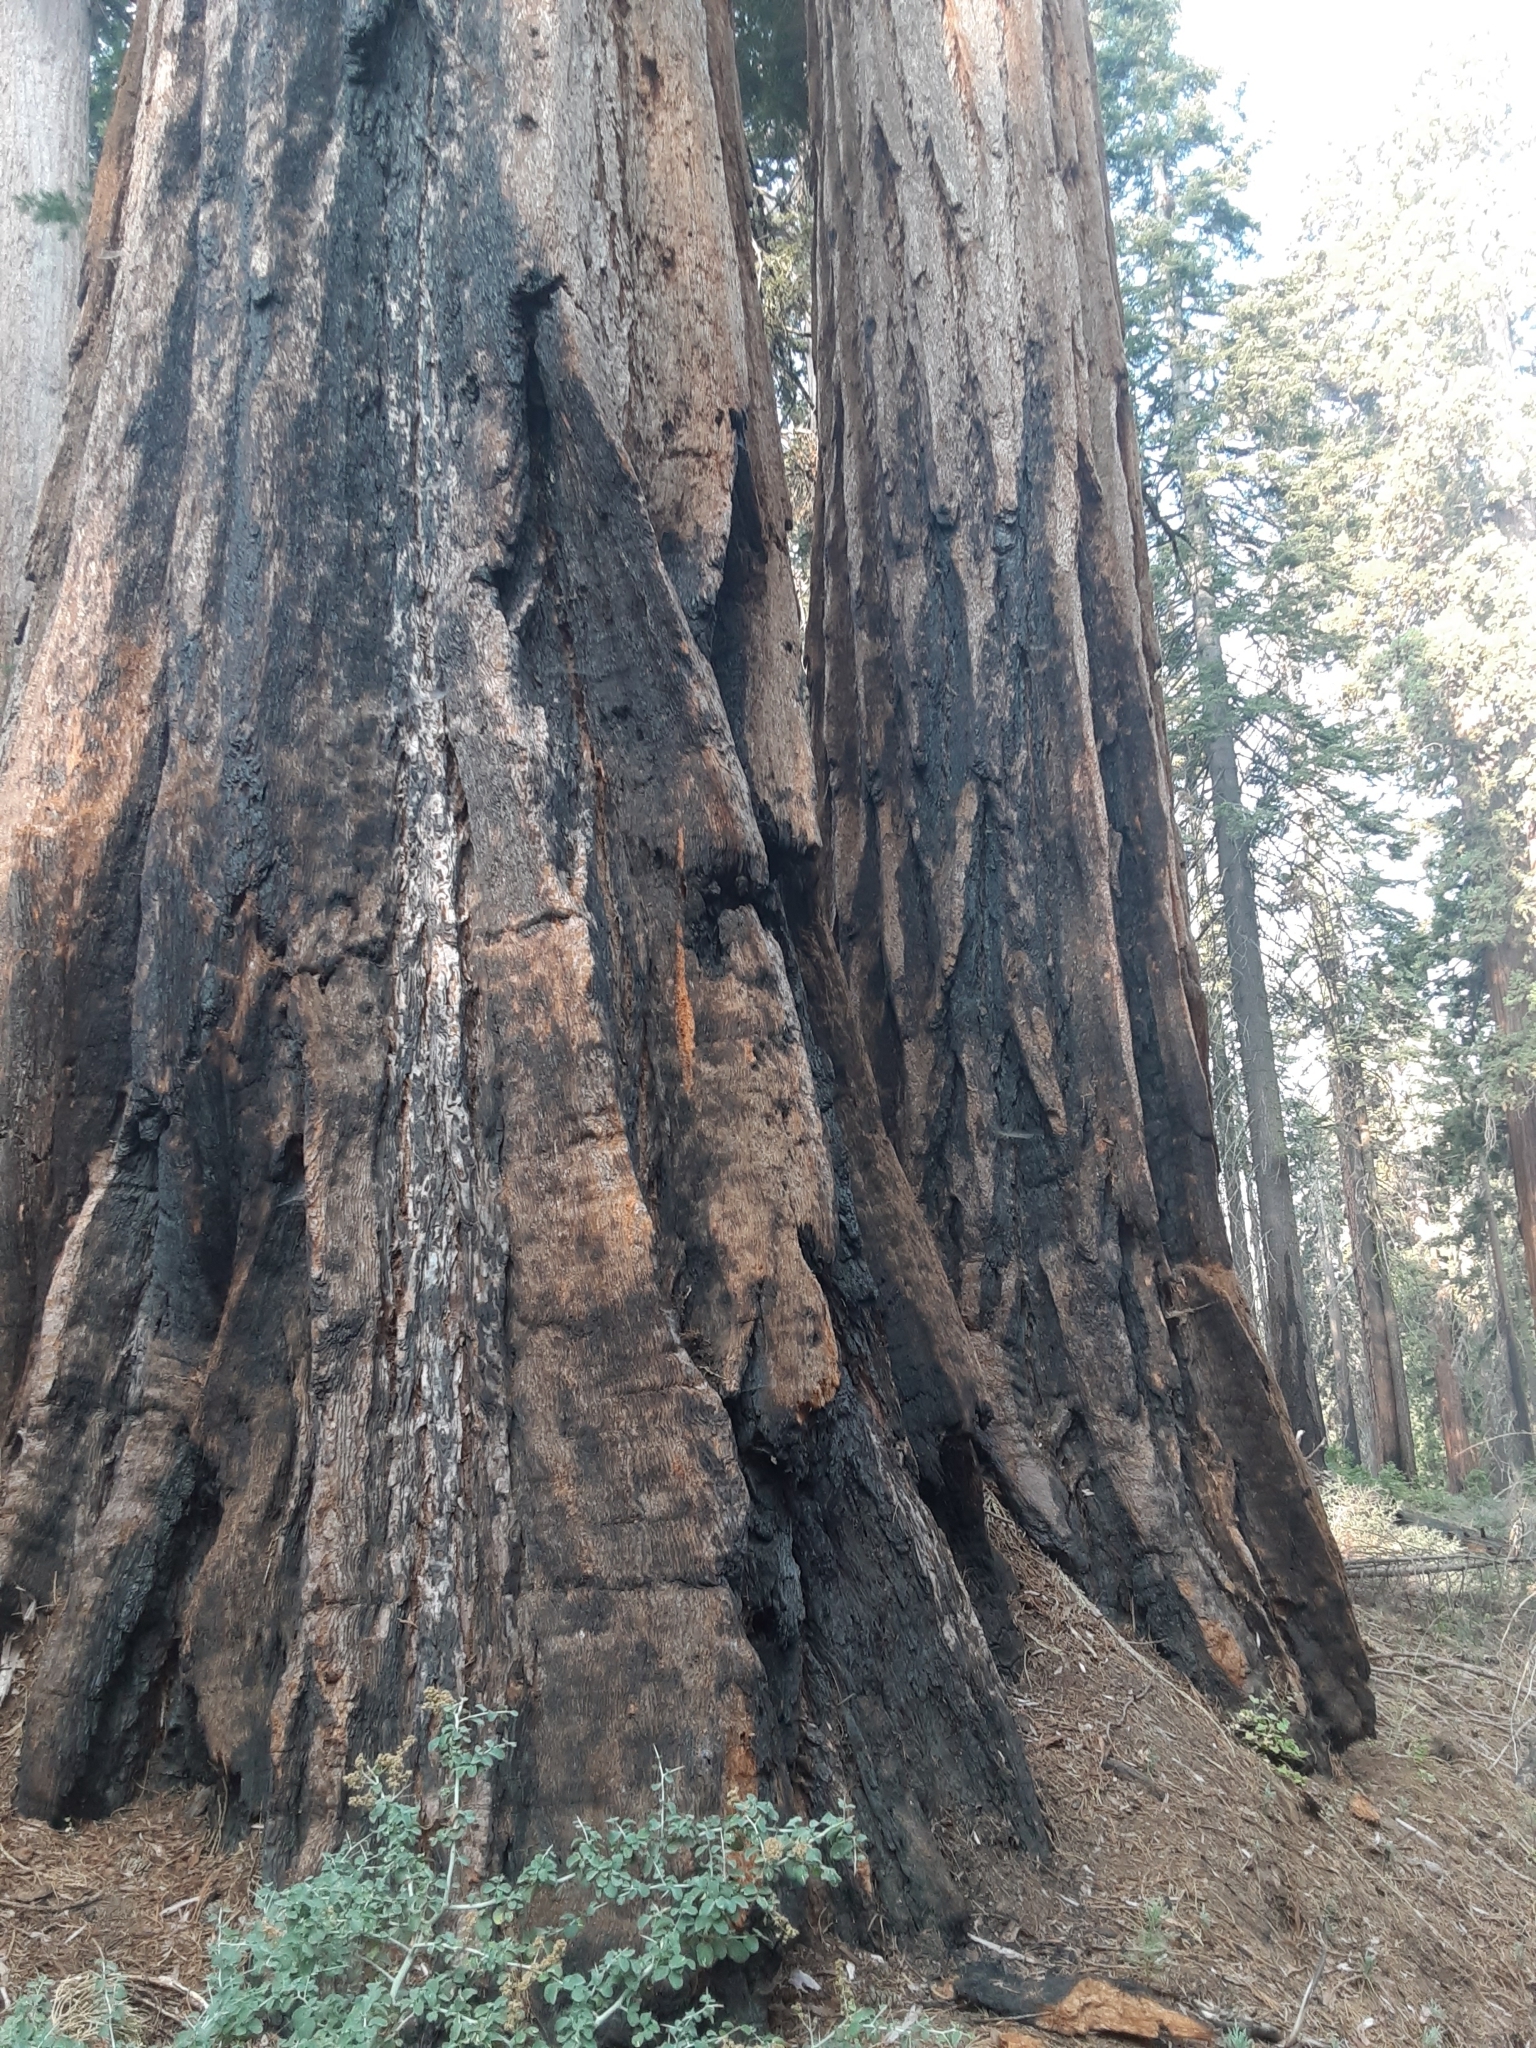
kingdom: Plantae
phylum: Tracheophyta
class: Pinopsida
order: Pinales
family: Cupressaceae
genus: Sequoiadendron
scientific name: Sequoiadendron giganteum
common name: Wellingtonia
